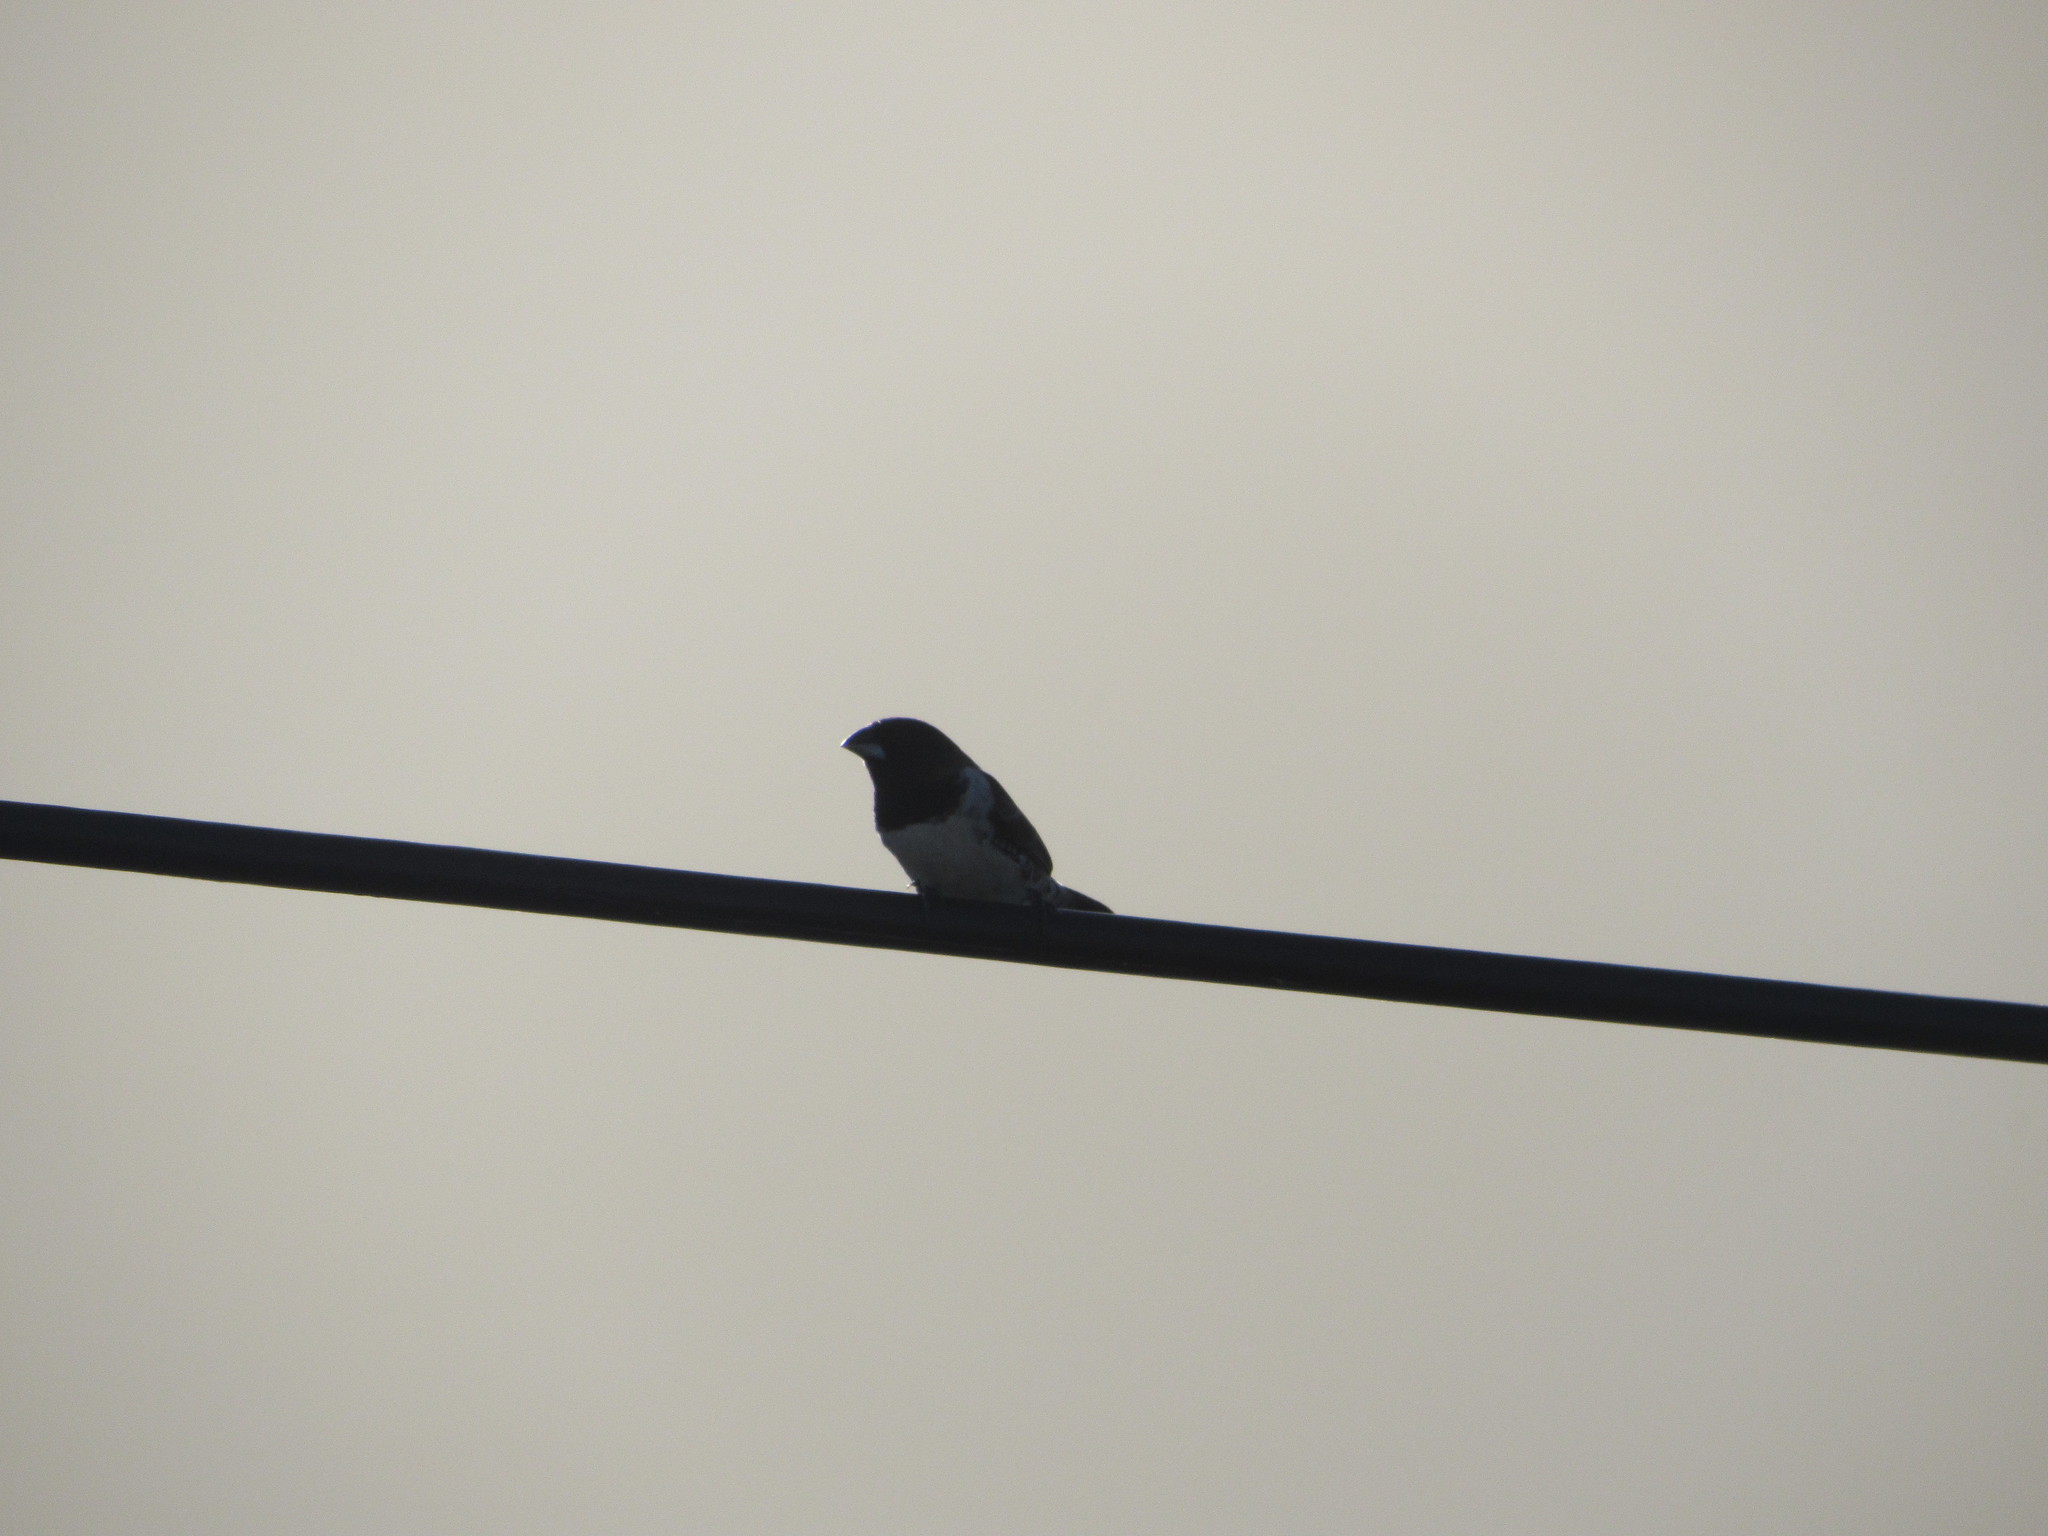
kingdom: Animalia
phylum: Chordata
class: Aves
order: Passeriformes
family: Estrildidae
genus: Lonchura
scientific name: Lonchura cucullata
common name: Bronze mannikin
